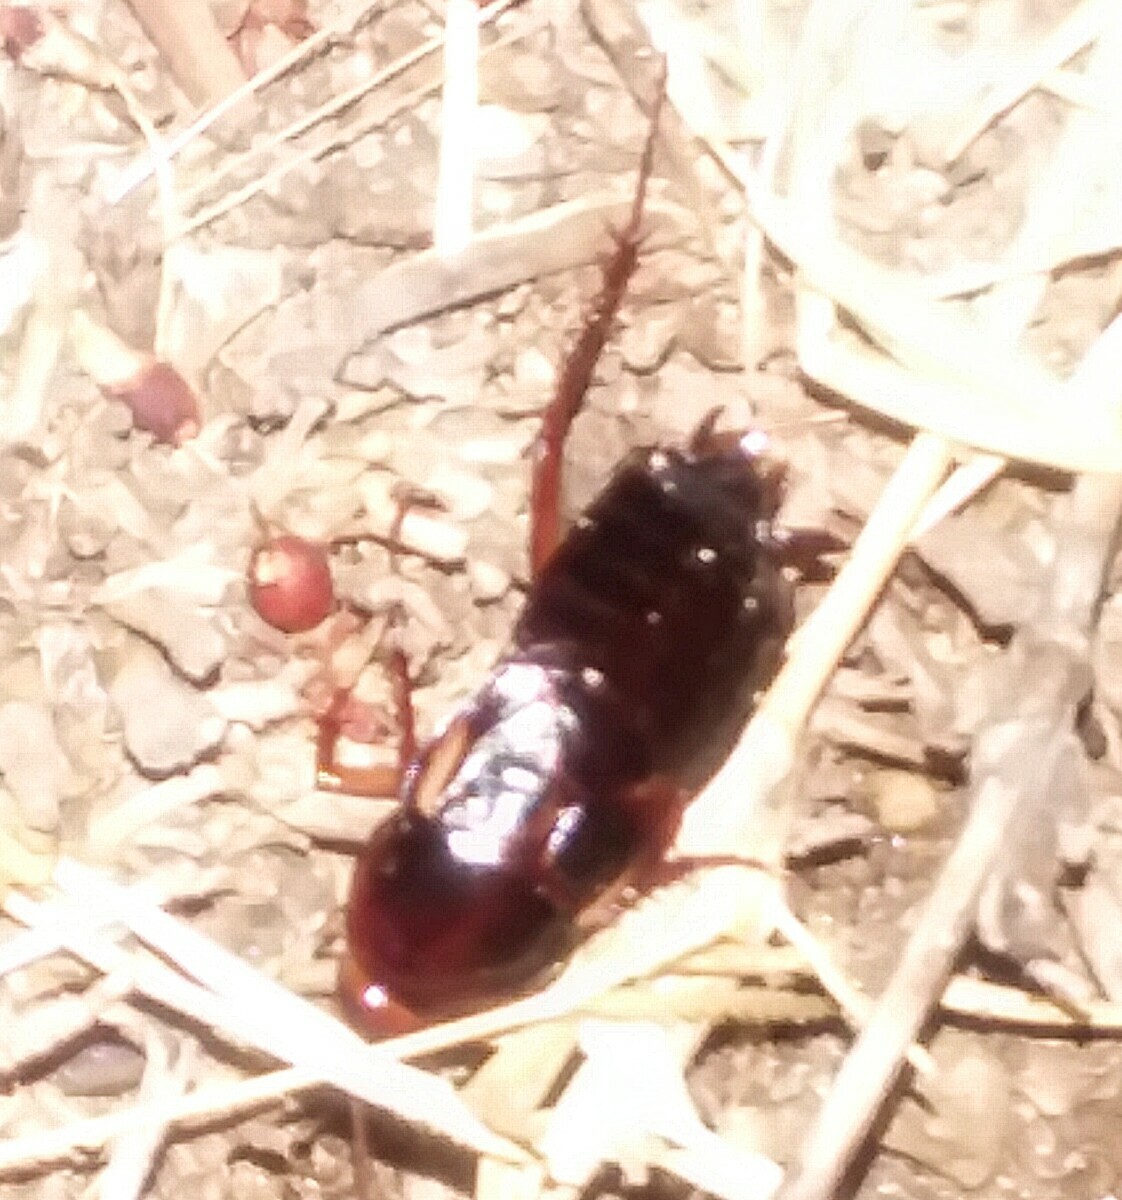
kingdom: Animalia
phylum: Arthropoda
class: Insecta
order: Blattodea
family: Blattidae
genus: Periplaneta
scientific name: Periplaneta lateralis
